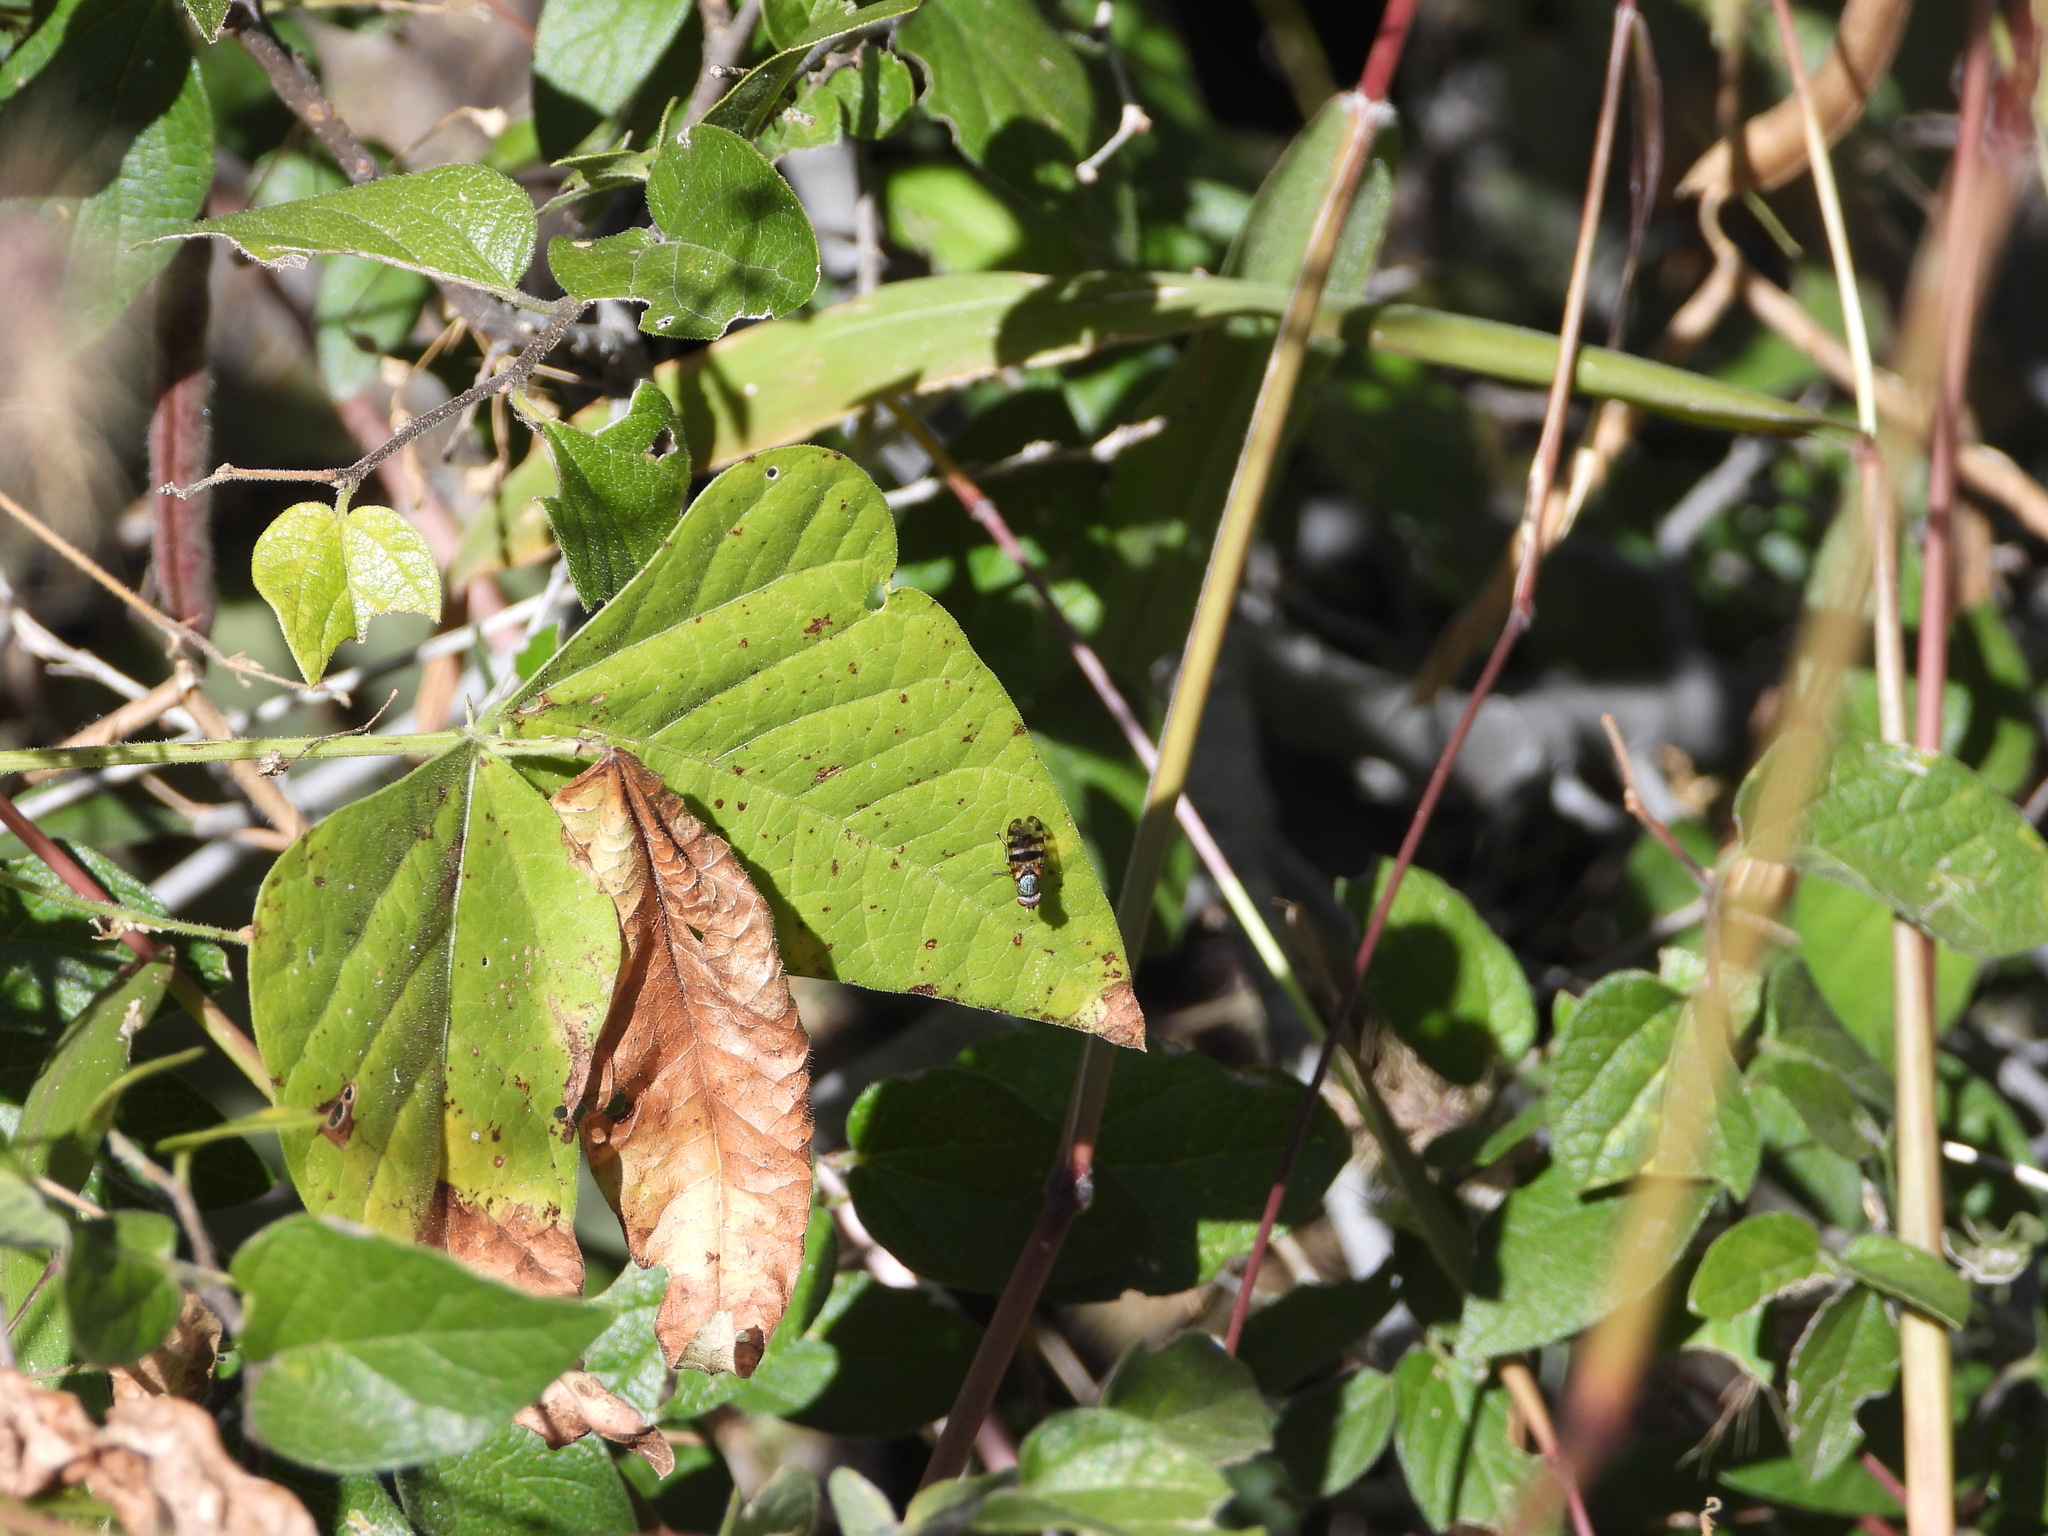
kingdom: Animalia
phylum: Arthropoda
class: Insecta
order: Diptera
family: Ulidiidae
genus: Ceroxys
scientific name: Ceroxys latiusculus
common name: Picture-winged fly
